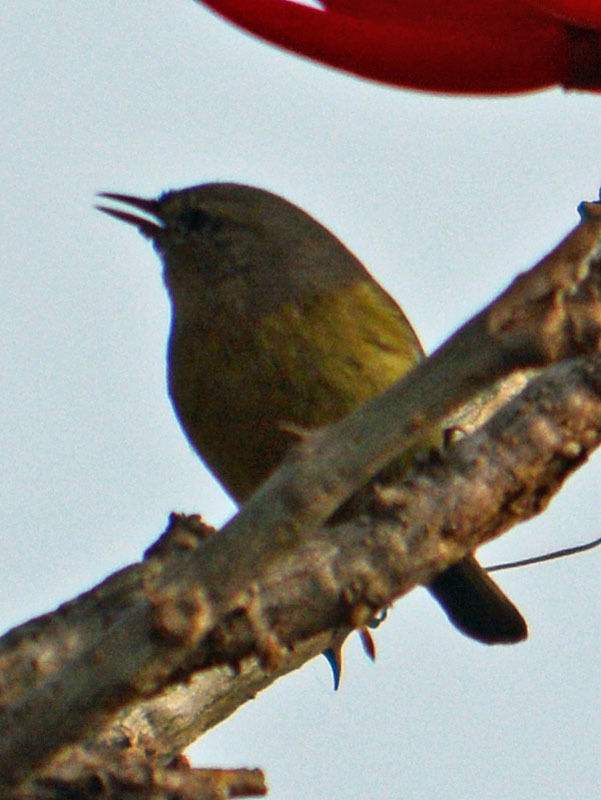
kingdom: Animalia
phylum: Chordata
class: Aves
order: Passeriformes
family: Parulidae
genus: Leiothlypis
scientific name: Leiothlypis celata
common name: Orange-crowned warbler
